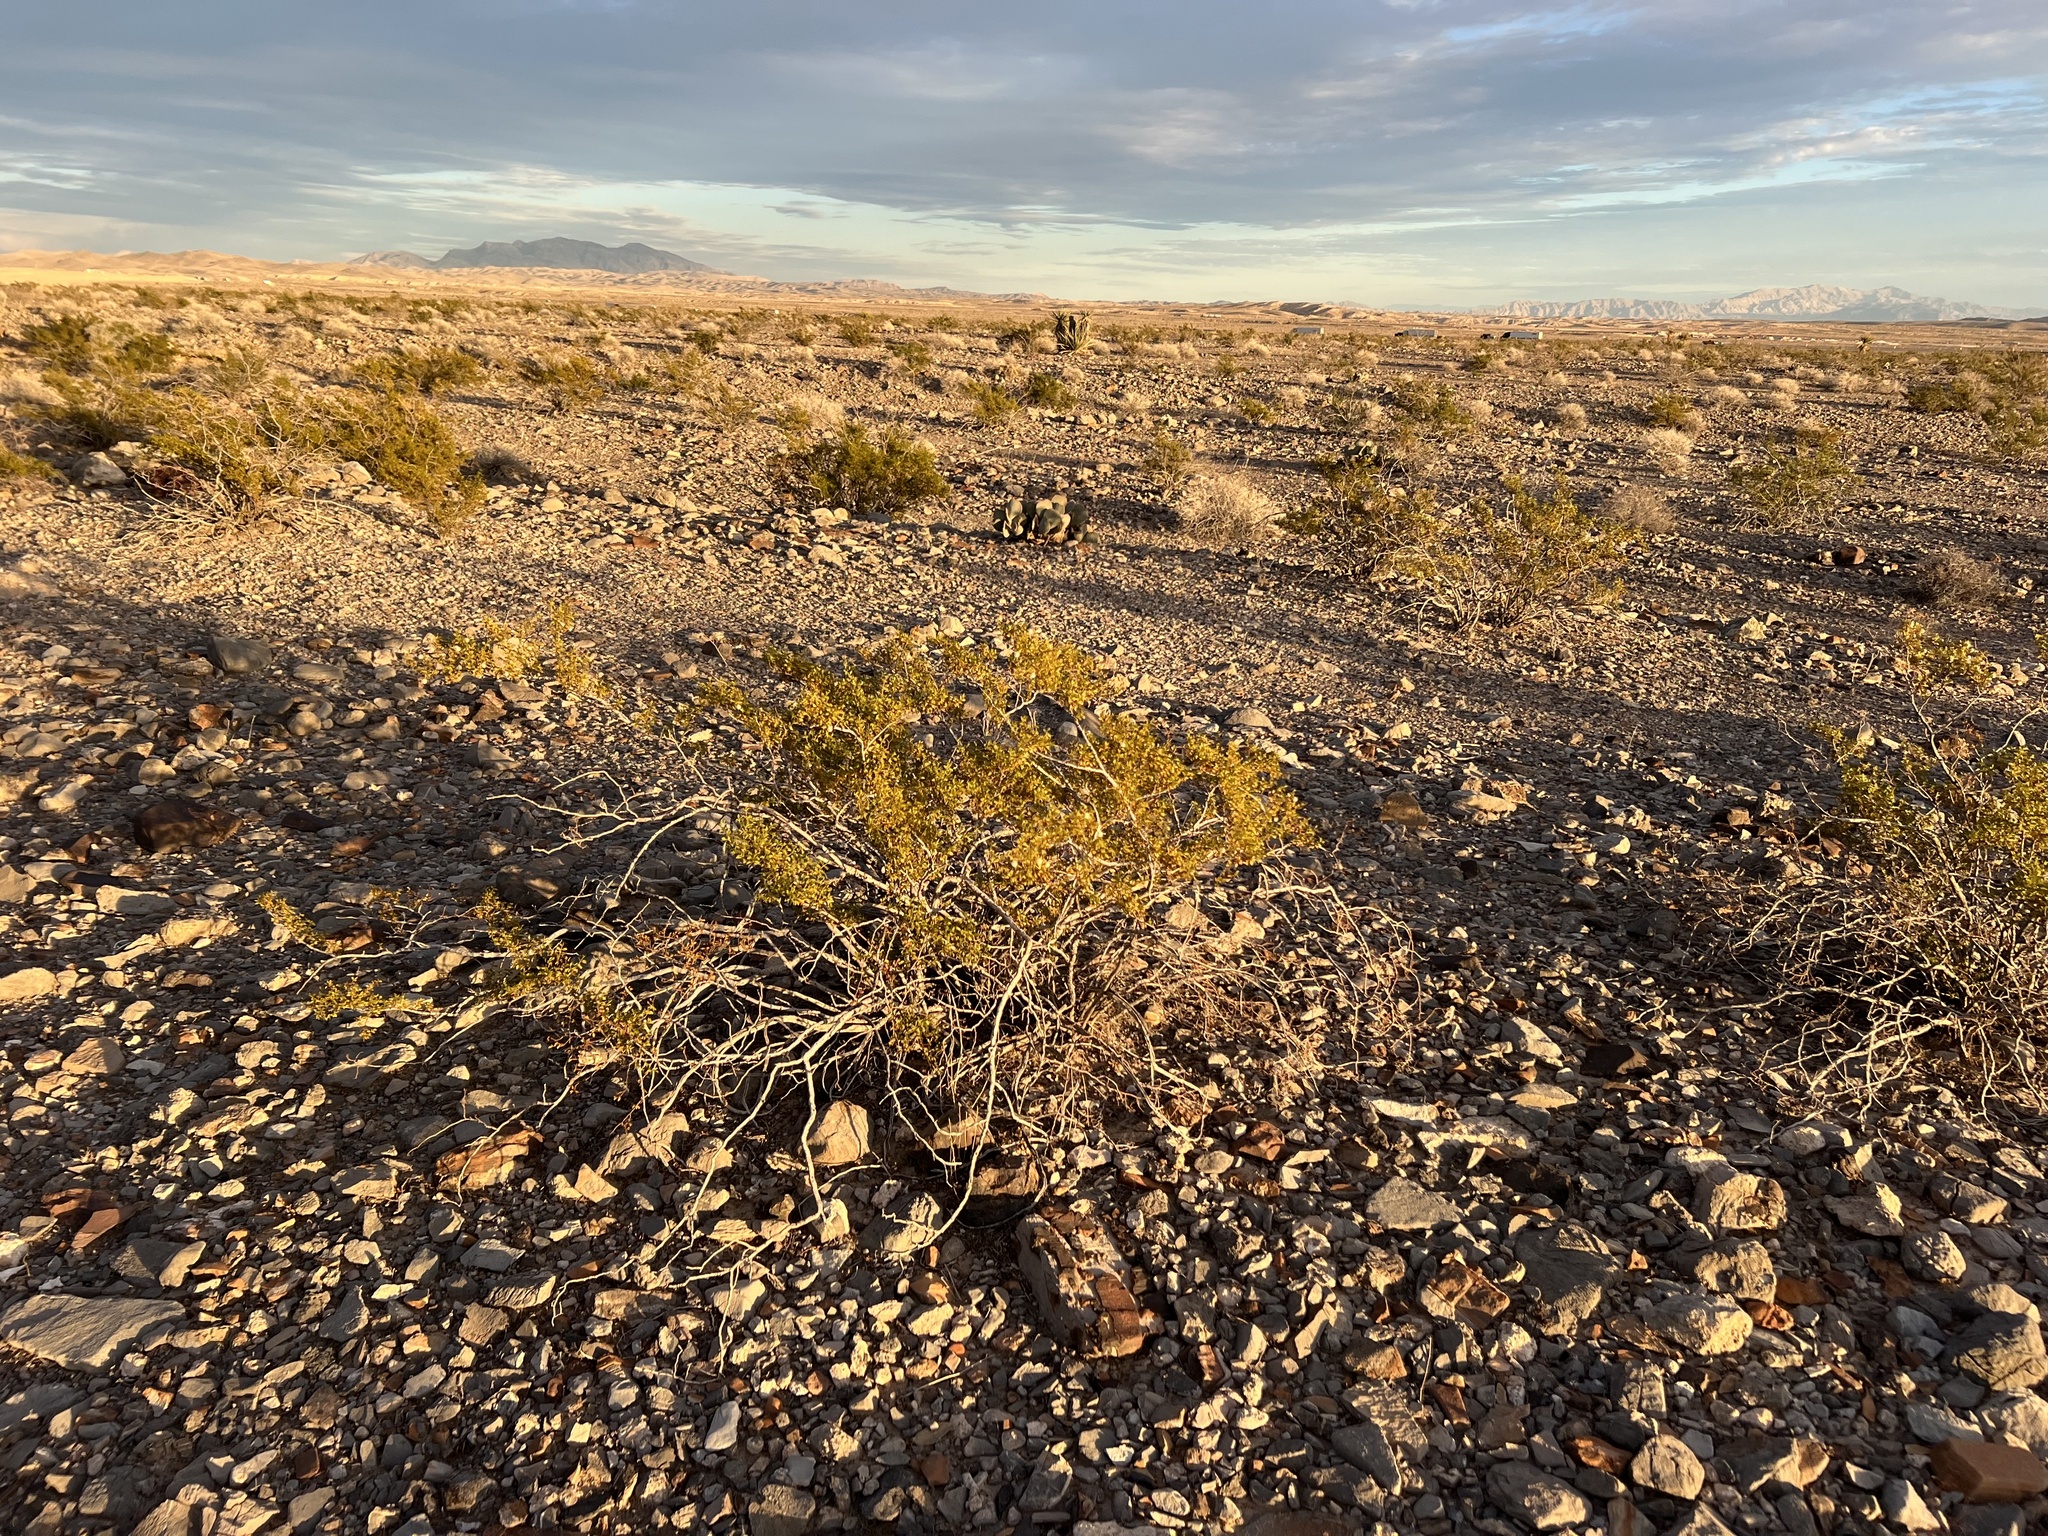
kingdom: Plantae
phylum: Tracheophyta
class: Magnoliopsida
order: Zygophyllales
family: Zygophyllaceae
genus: Larrea
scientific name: Larrea tridentata
